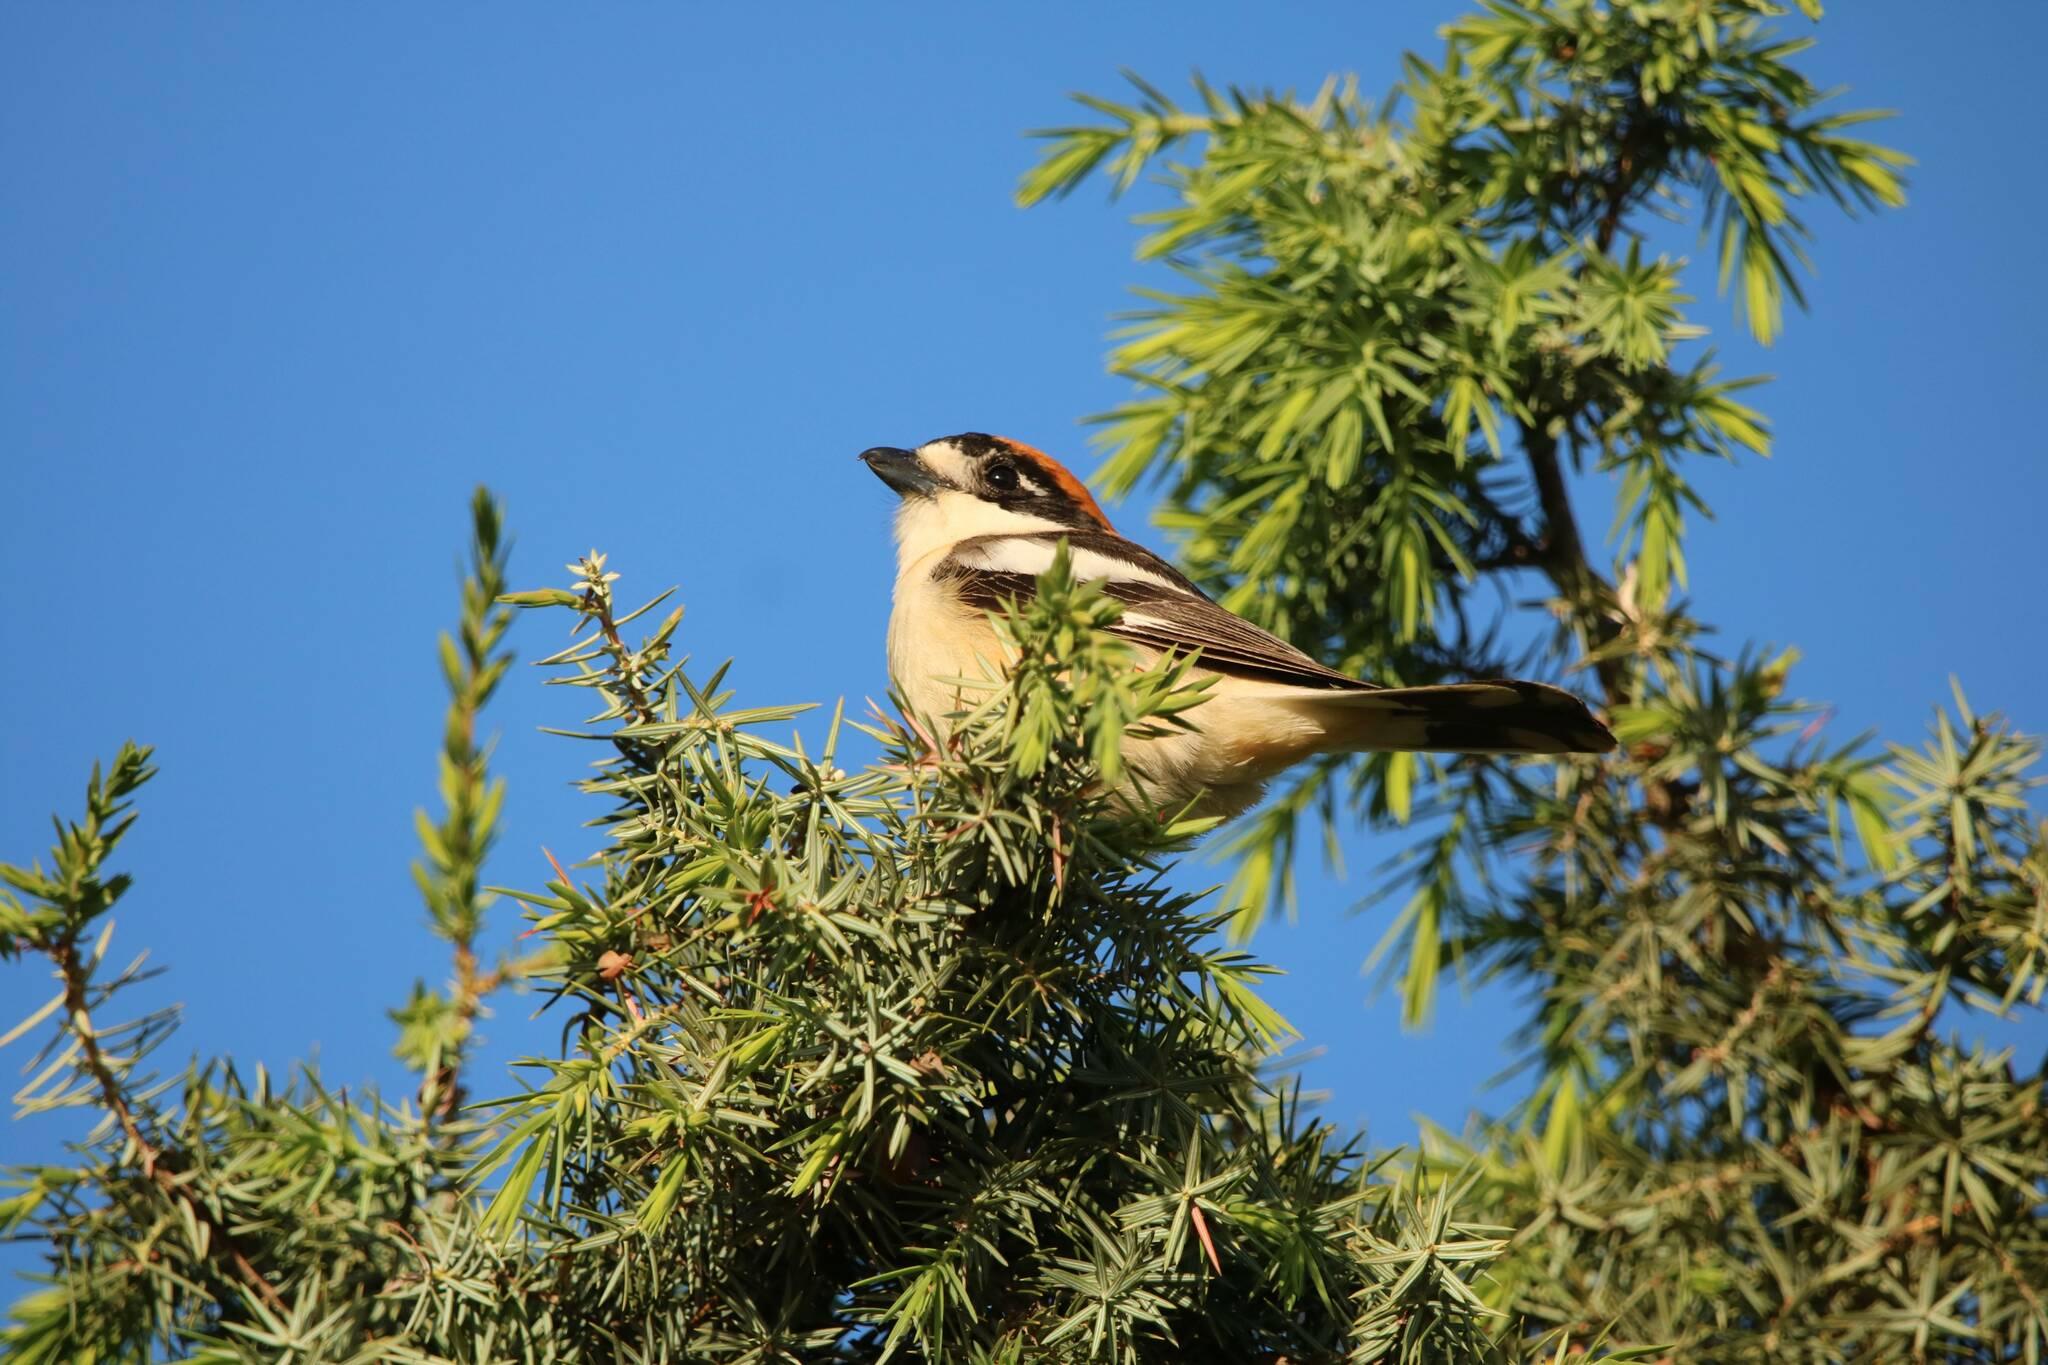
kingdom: Animalia
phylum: Chordata
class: Aves
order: Passeriformes
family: Laniidae
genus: Lanius
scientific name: Lanius senator
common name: Woodchat shrike
